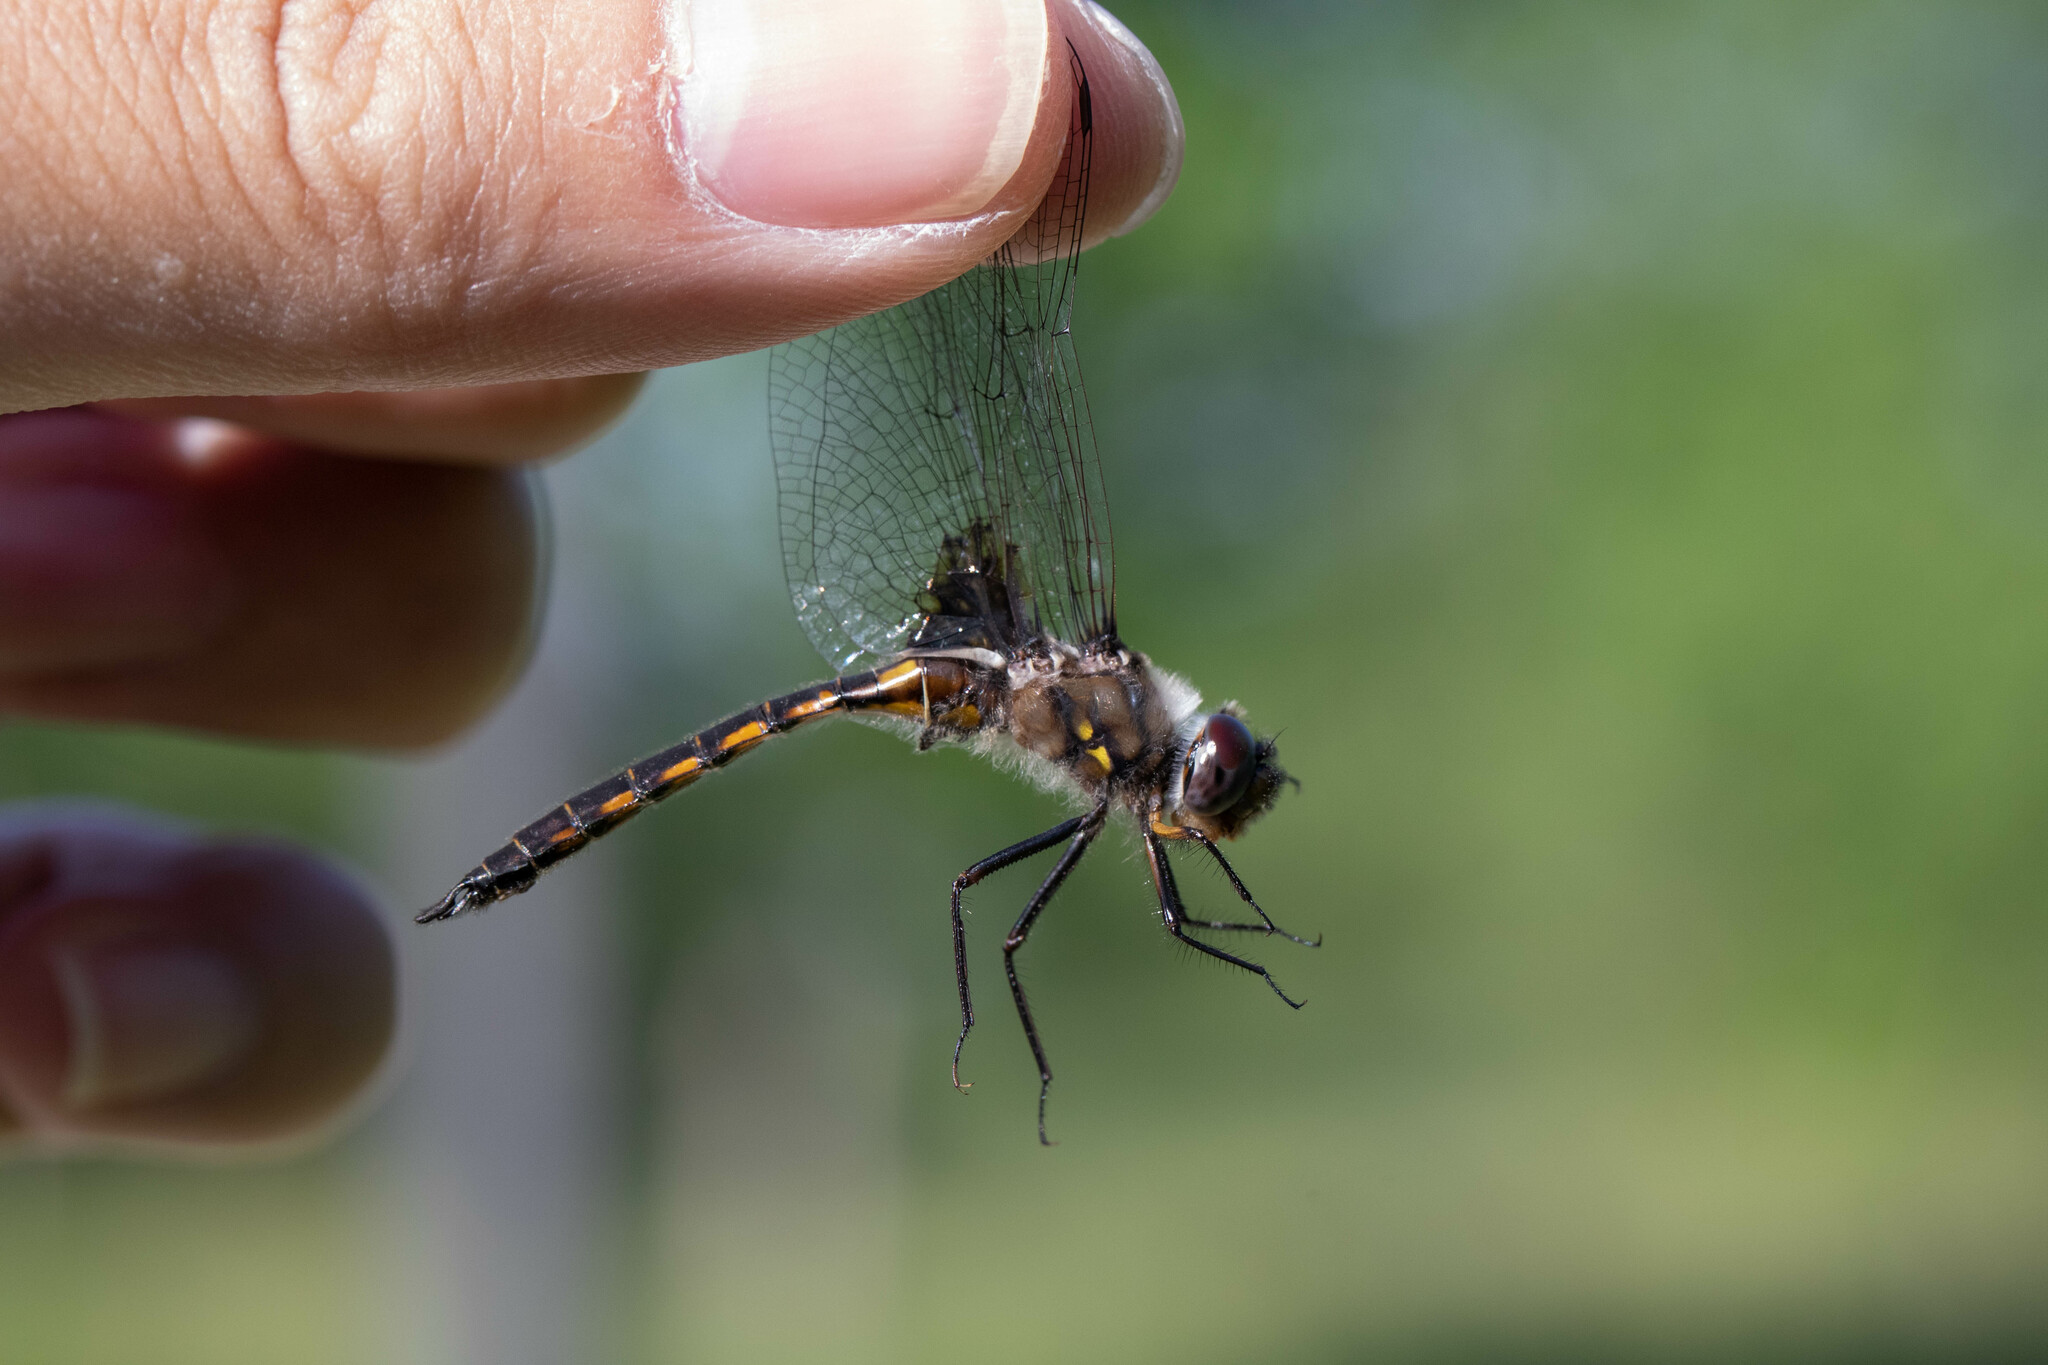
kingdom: Animalia
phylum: Arthropoda
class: Insecta
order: Odonata
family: Corduliidae
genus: Epitheca
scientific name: Epitheca cynosura
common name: Common baskettail
